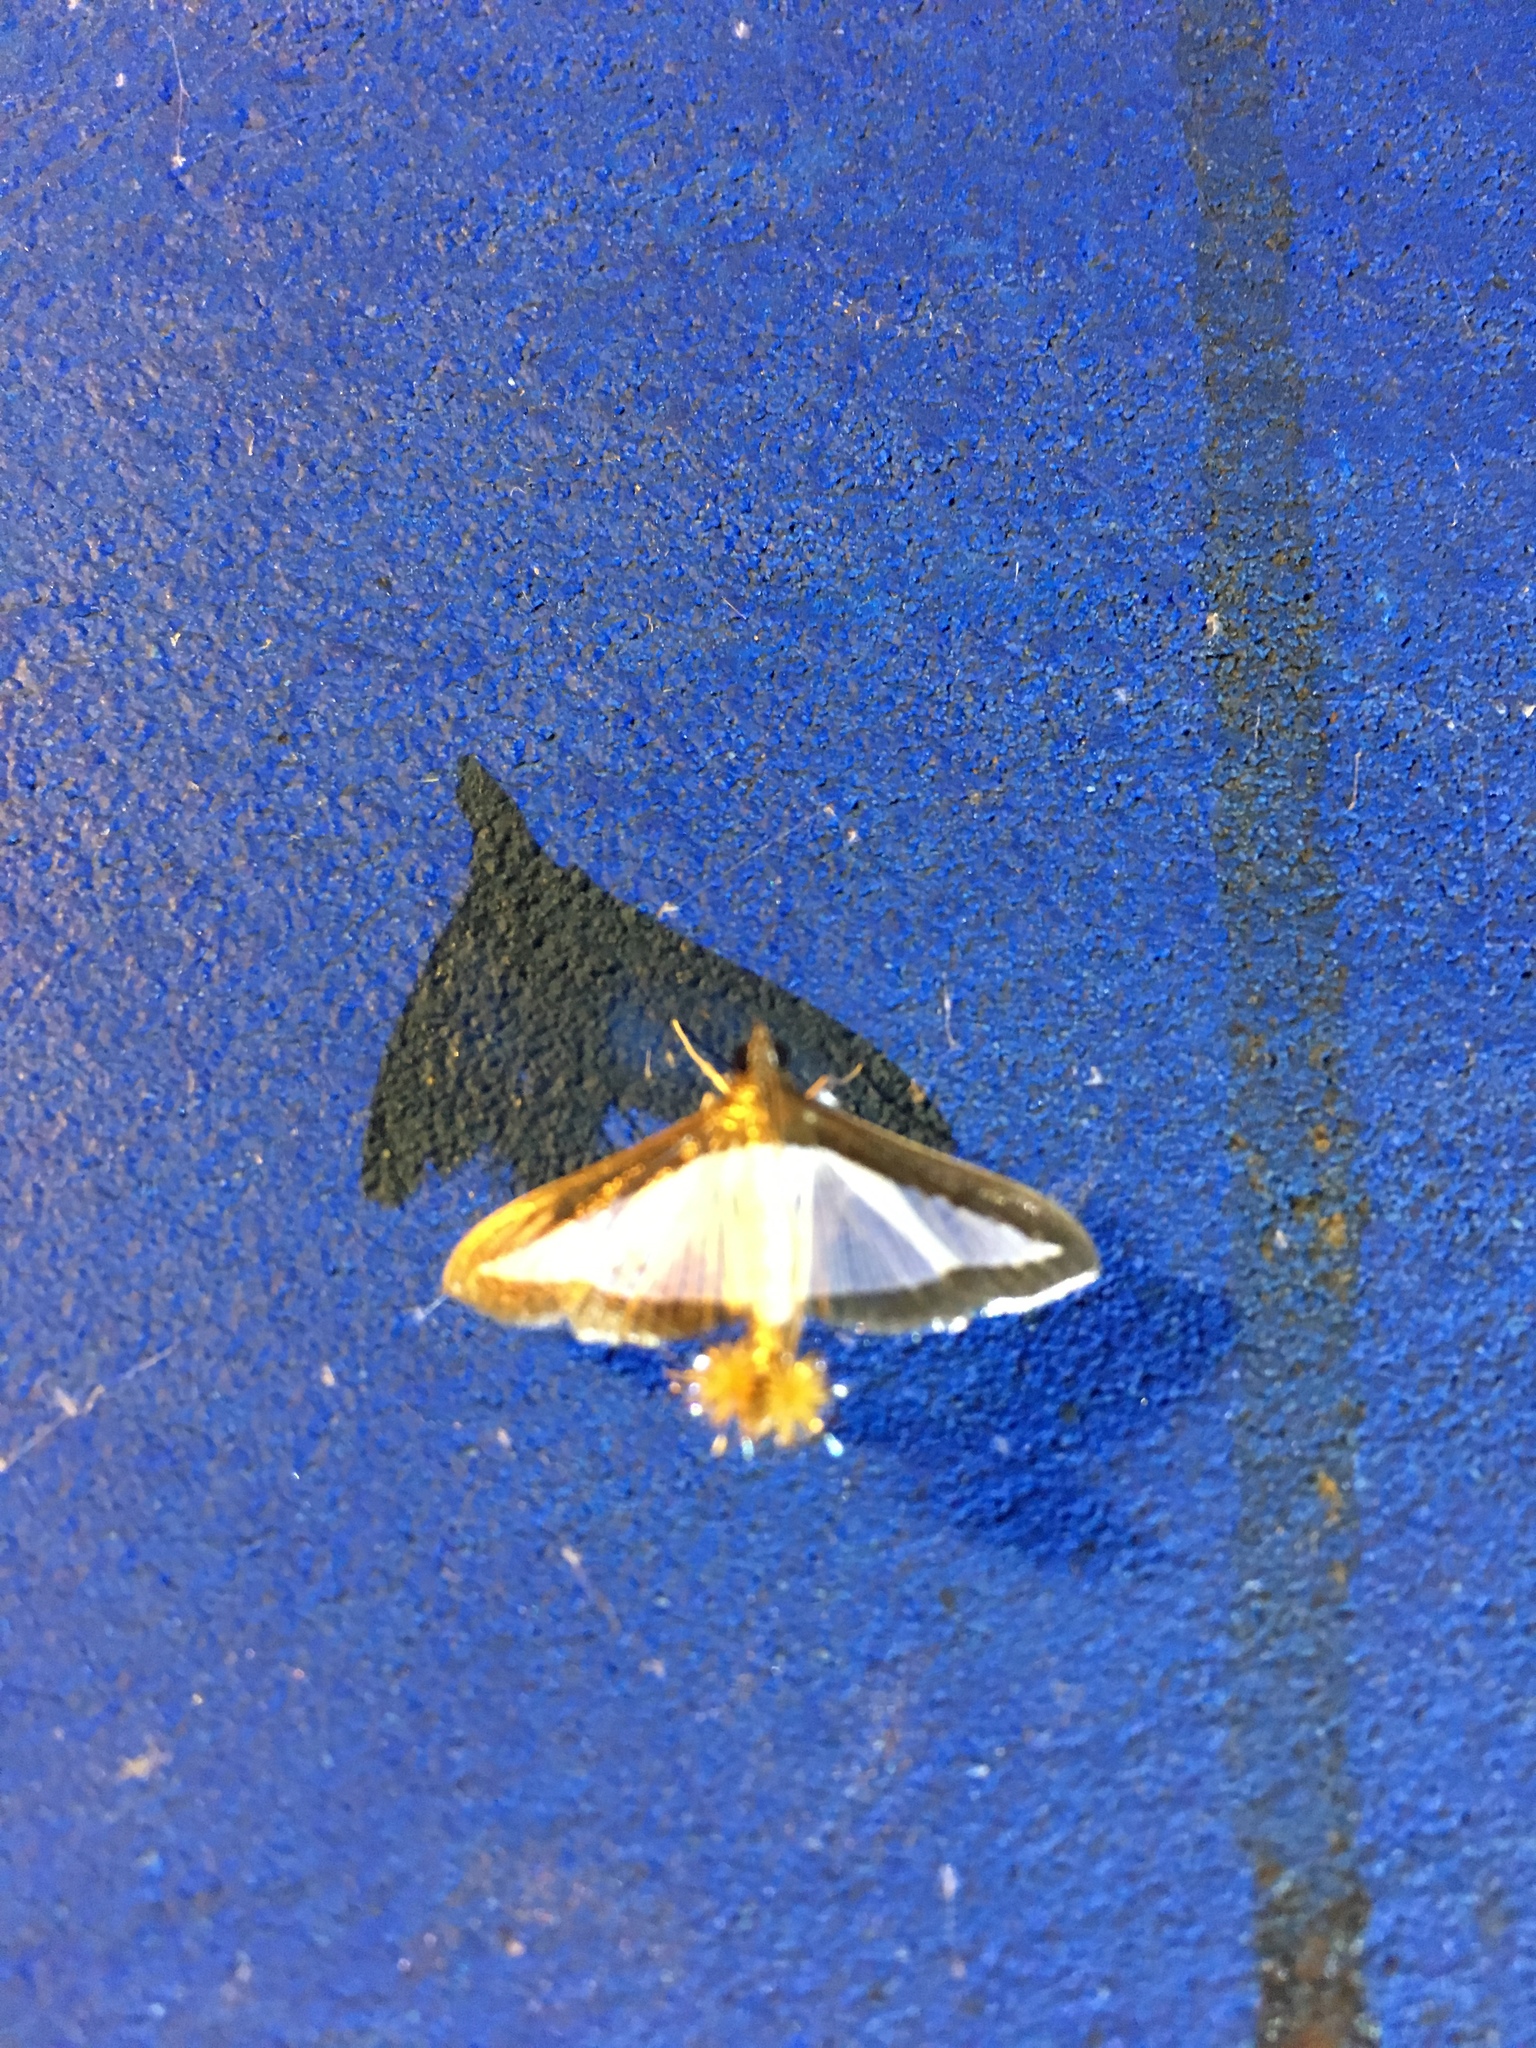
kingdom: Animalia
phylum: Arthropoda
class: Insecta
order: Lepidoptera
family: Crambidae
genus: Diaphania
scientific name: Diaphania hyalinata
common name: Melonworm
